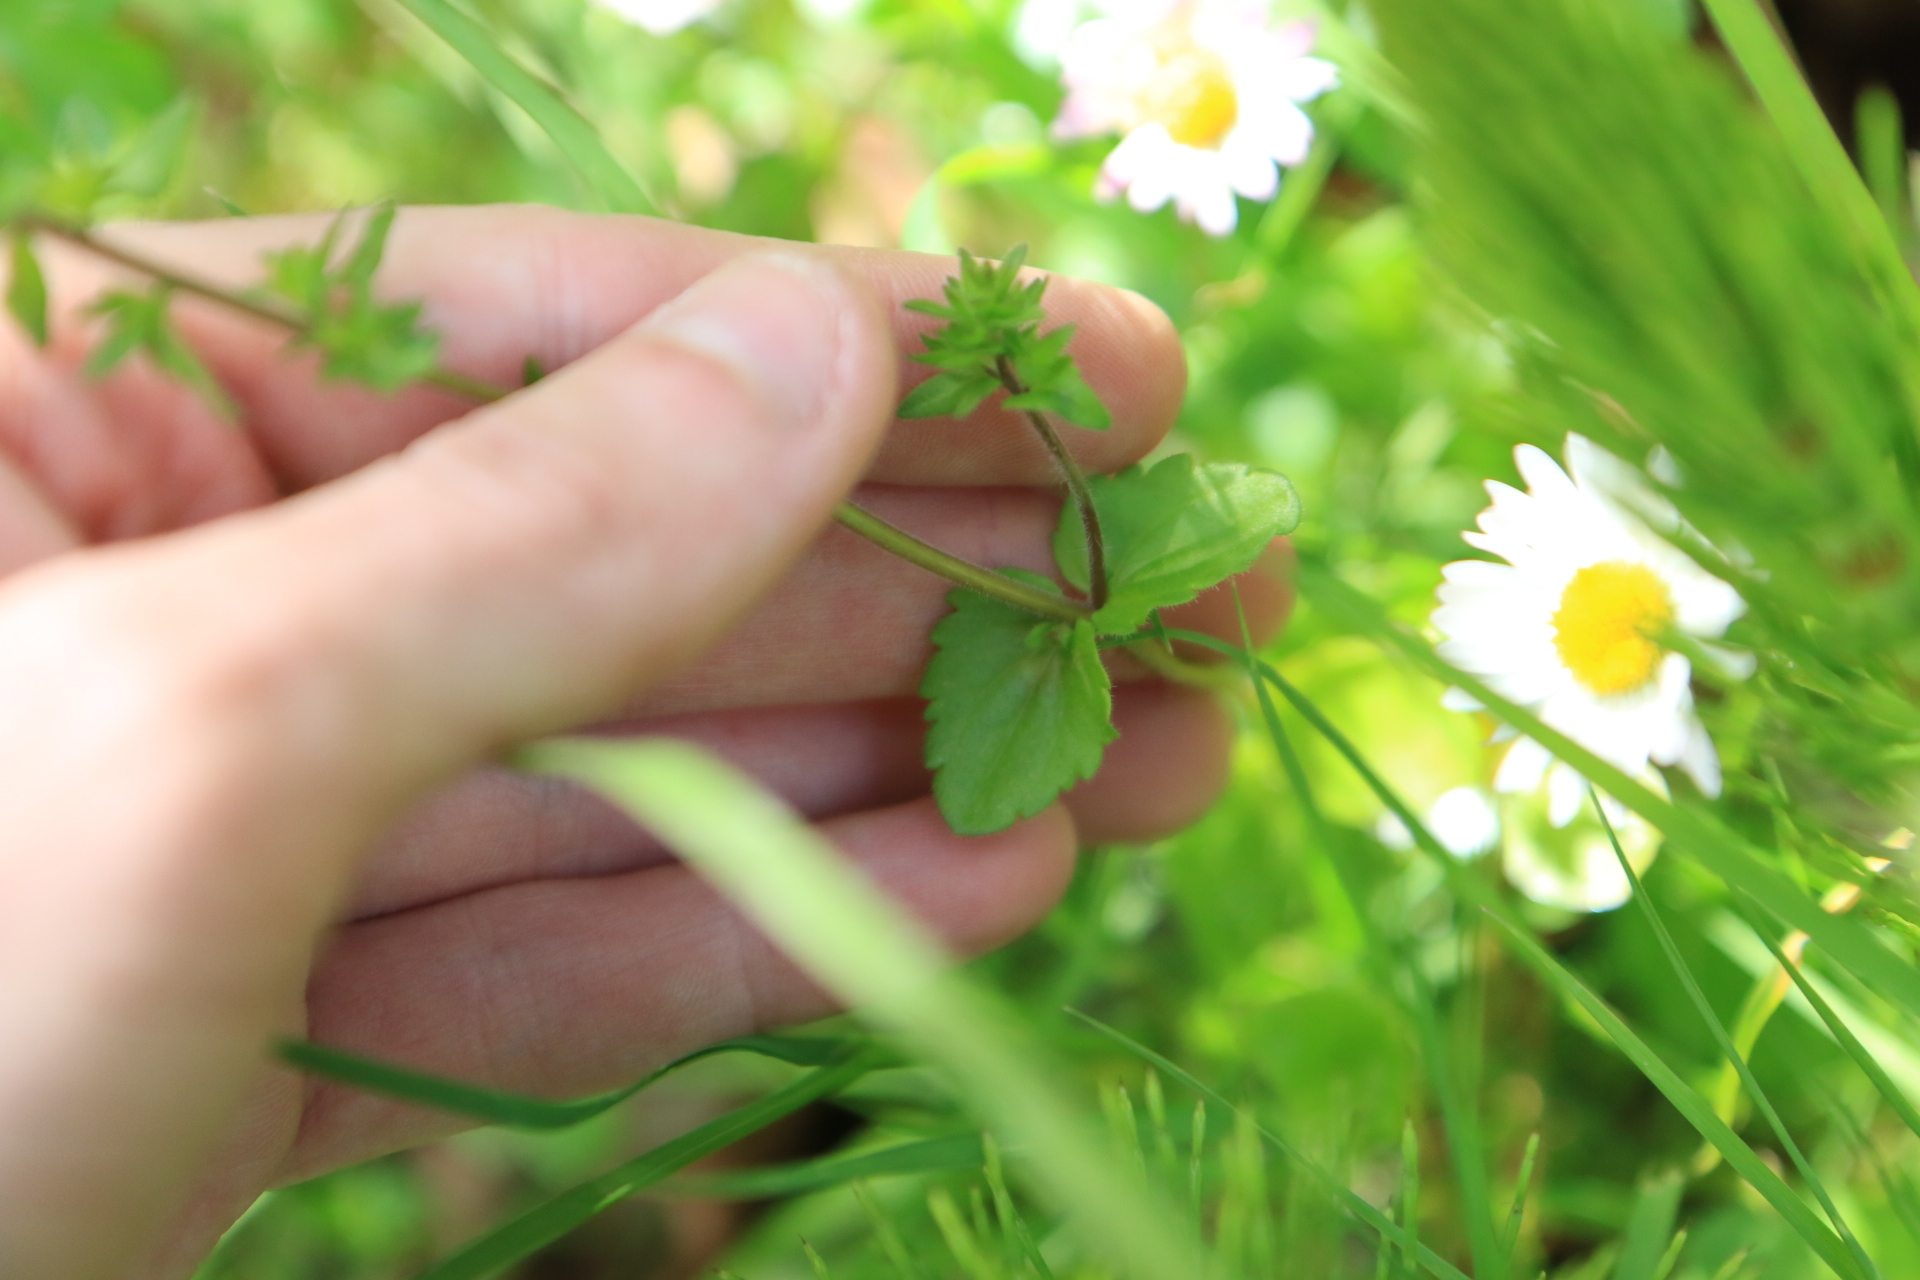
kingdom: Plantae
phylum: Tracheophyta
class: Magnoliopsida
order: Lamiales
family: Plantaginaceae
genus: Veronica
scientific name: Veronica arvensis
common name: Corn speedwell
